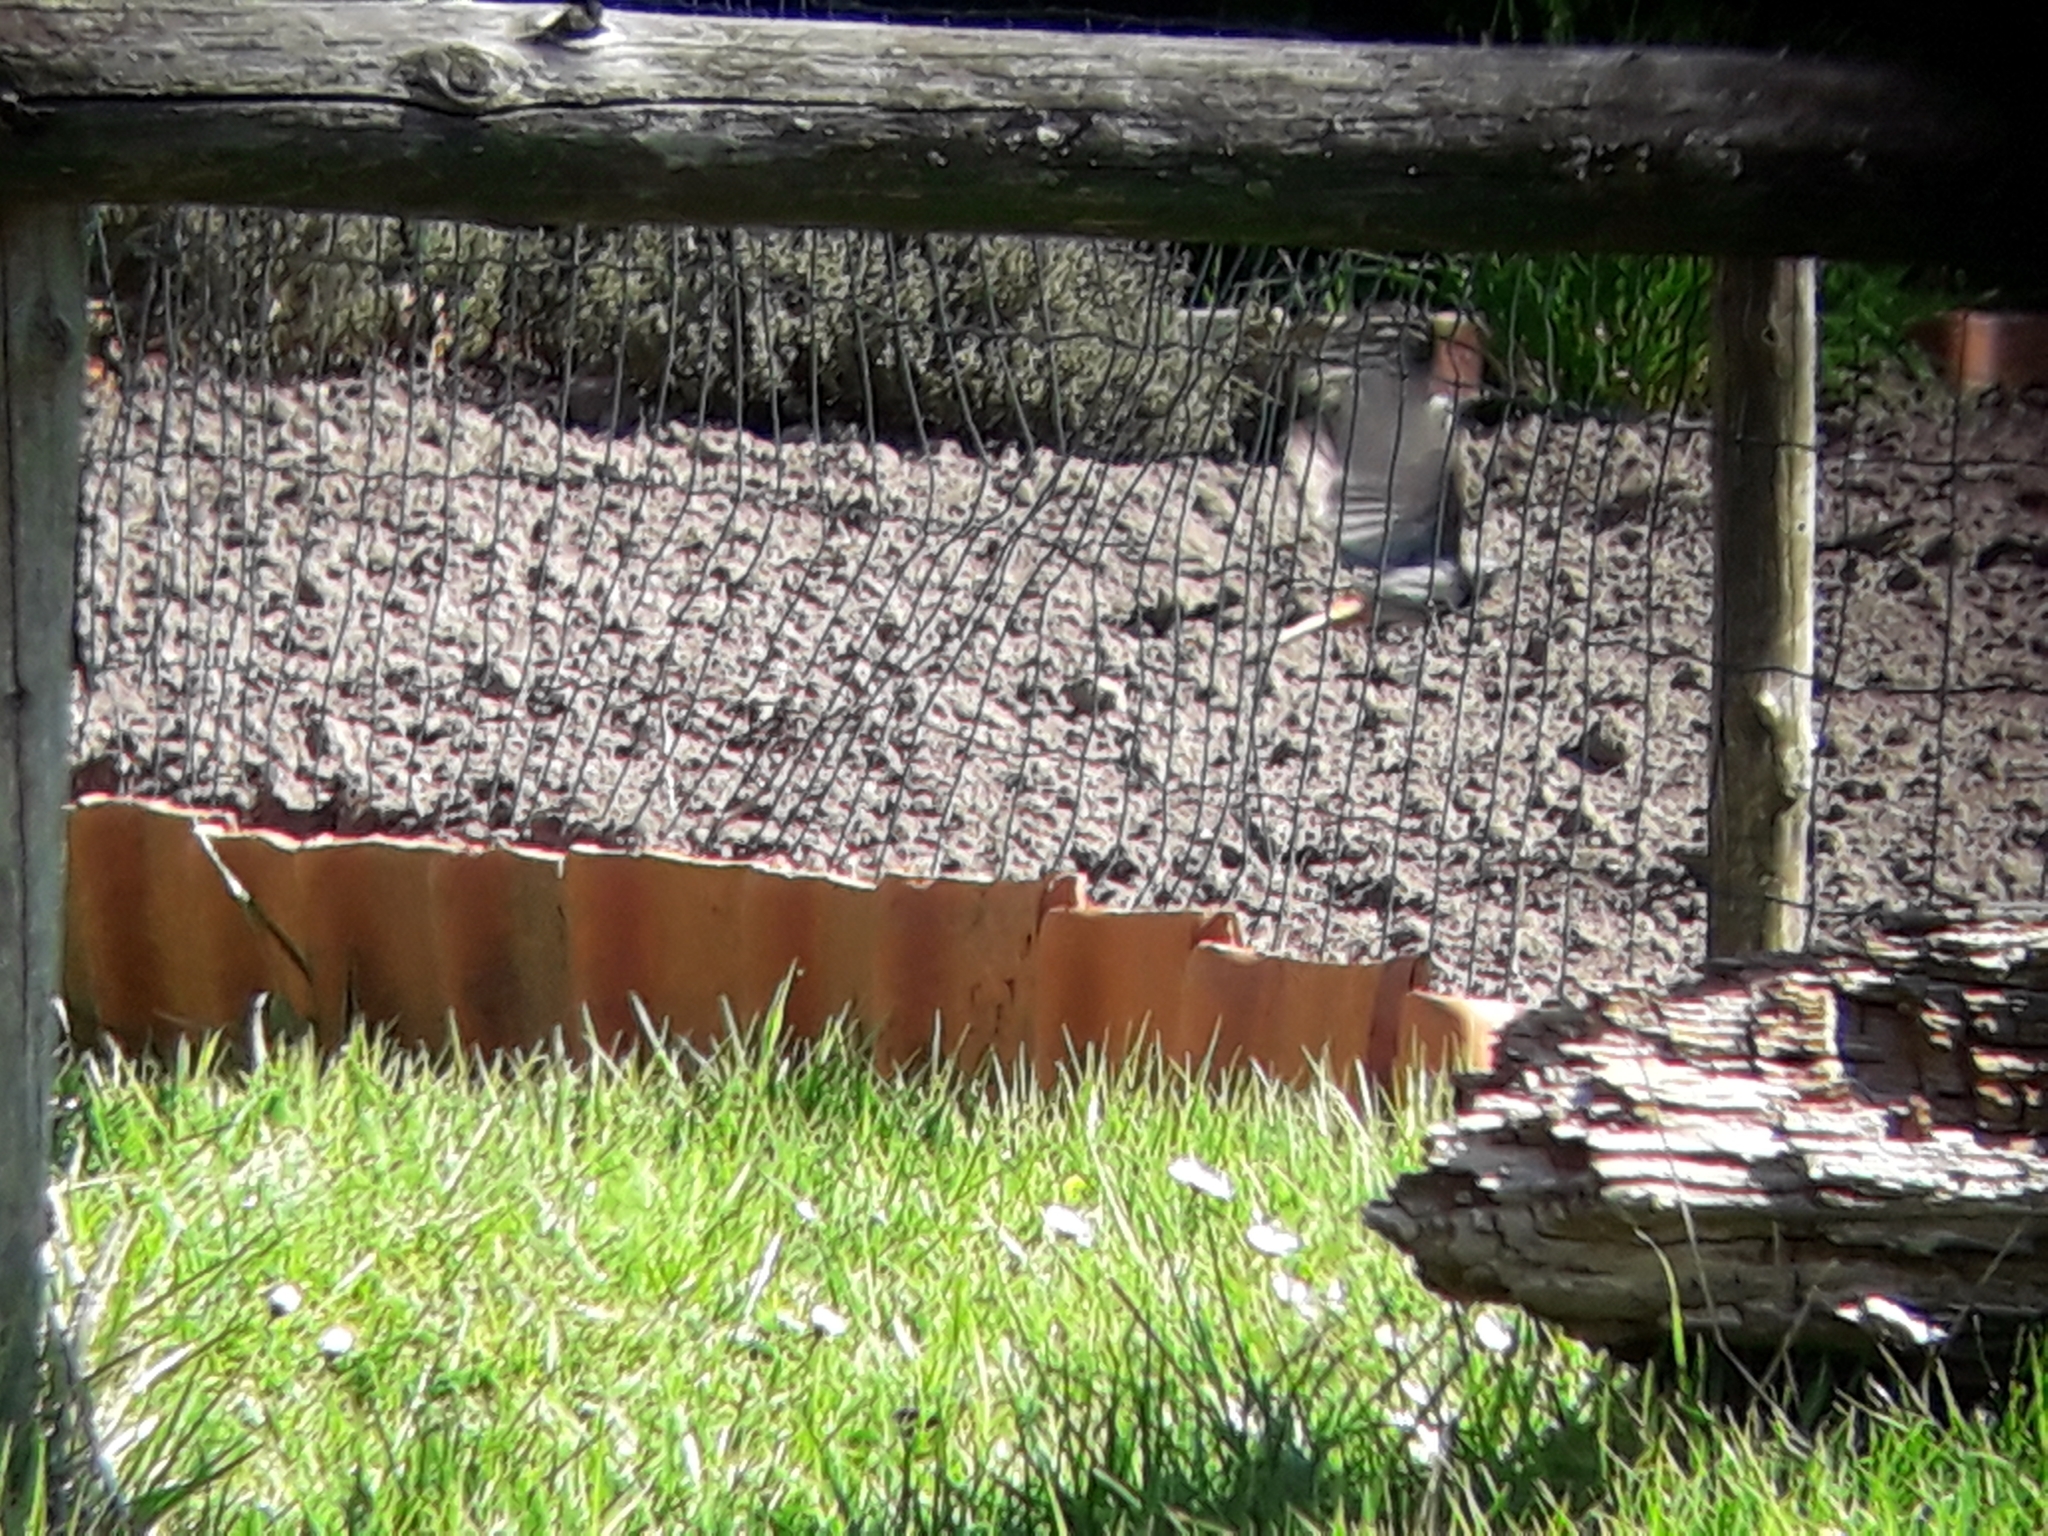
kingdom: Animalia
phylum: Chordata
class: Aves
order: Passeriformes
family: Muscicapidae
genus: Phoenicurus
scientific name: Phoenicurus ochruros
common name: Black redstart
